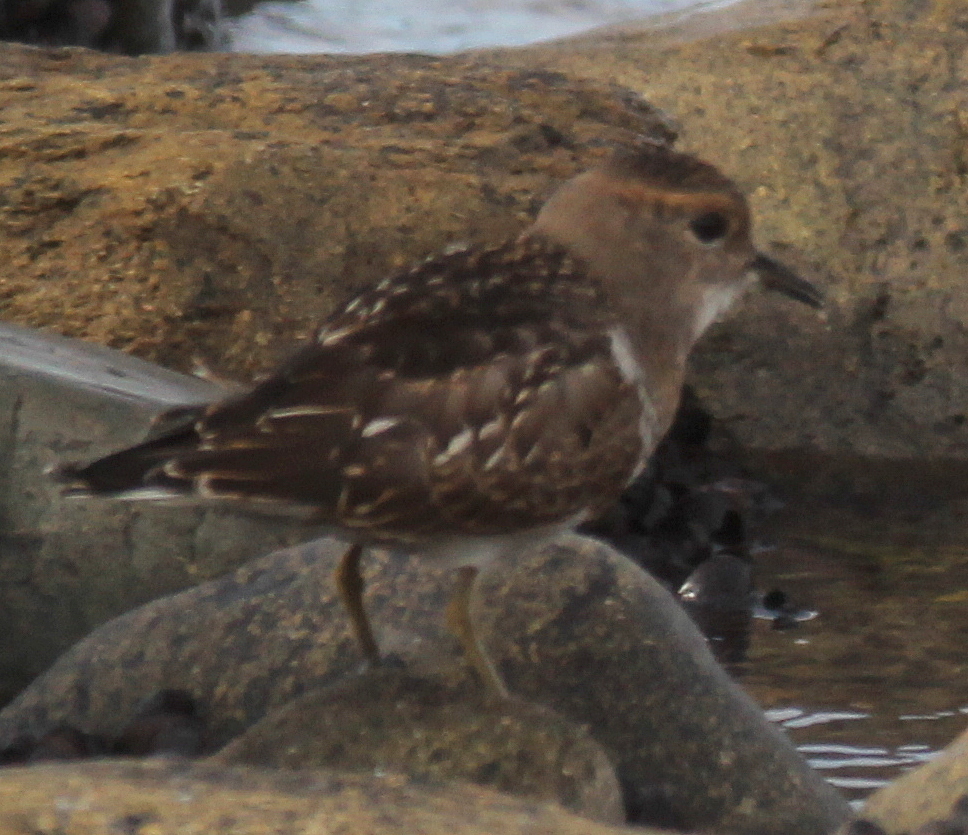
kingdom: Animalia
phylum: Chordata
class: Aves
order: Charadriiformes
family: Charadriidae
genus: Charadrius
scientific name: Charadrius modestus
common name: Rufous-chested plover
